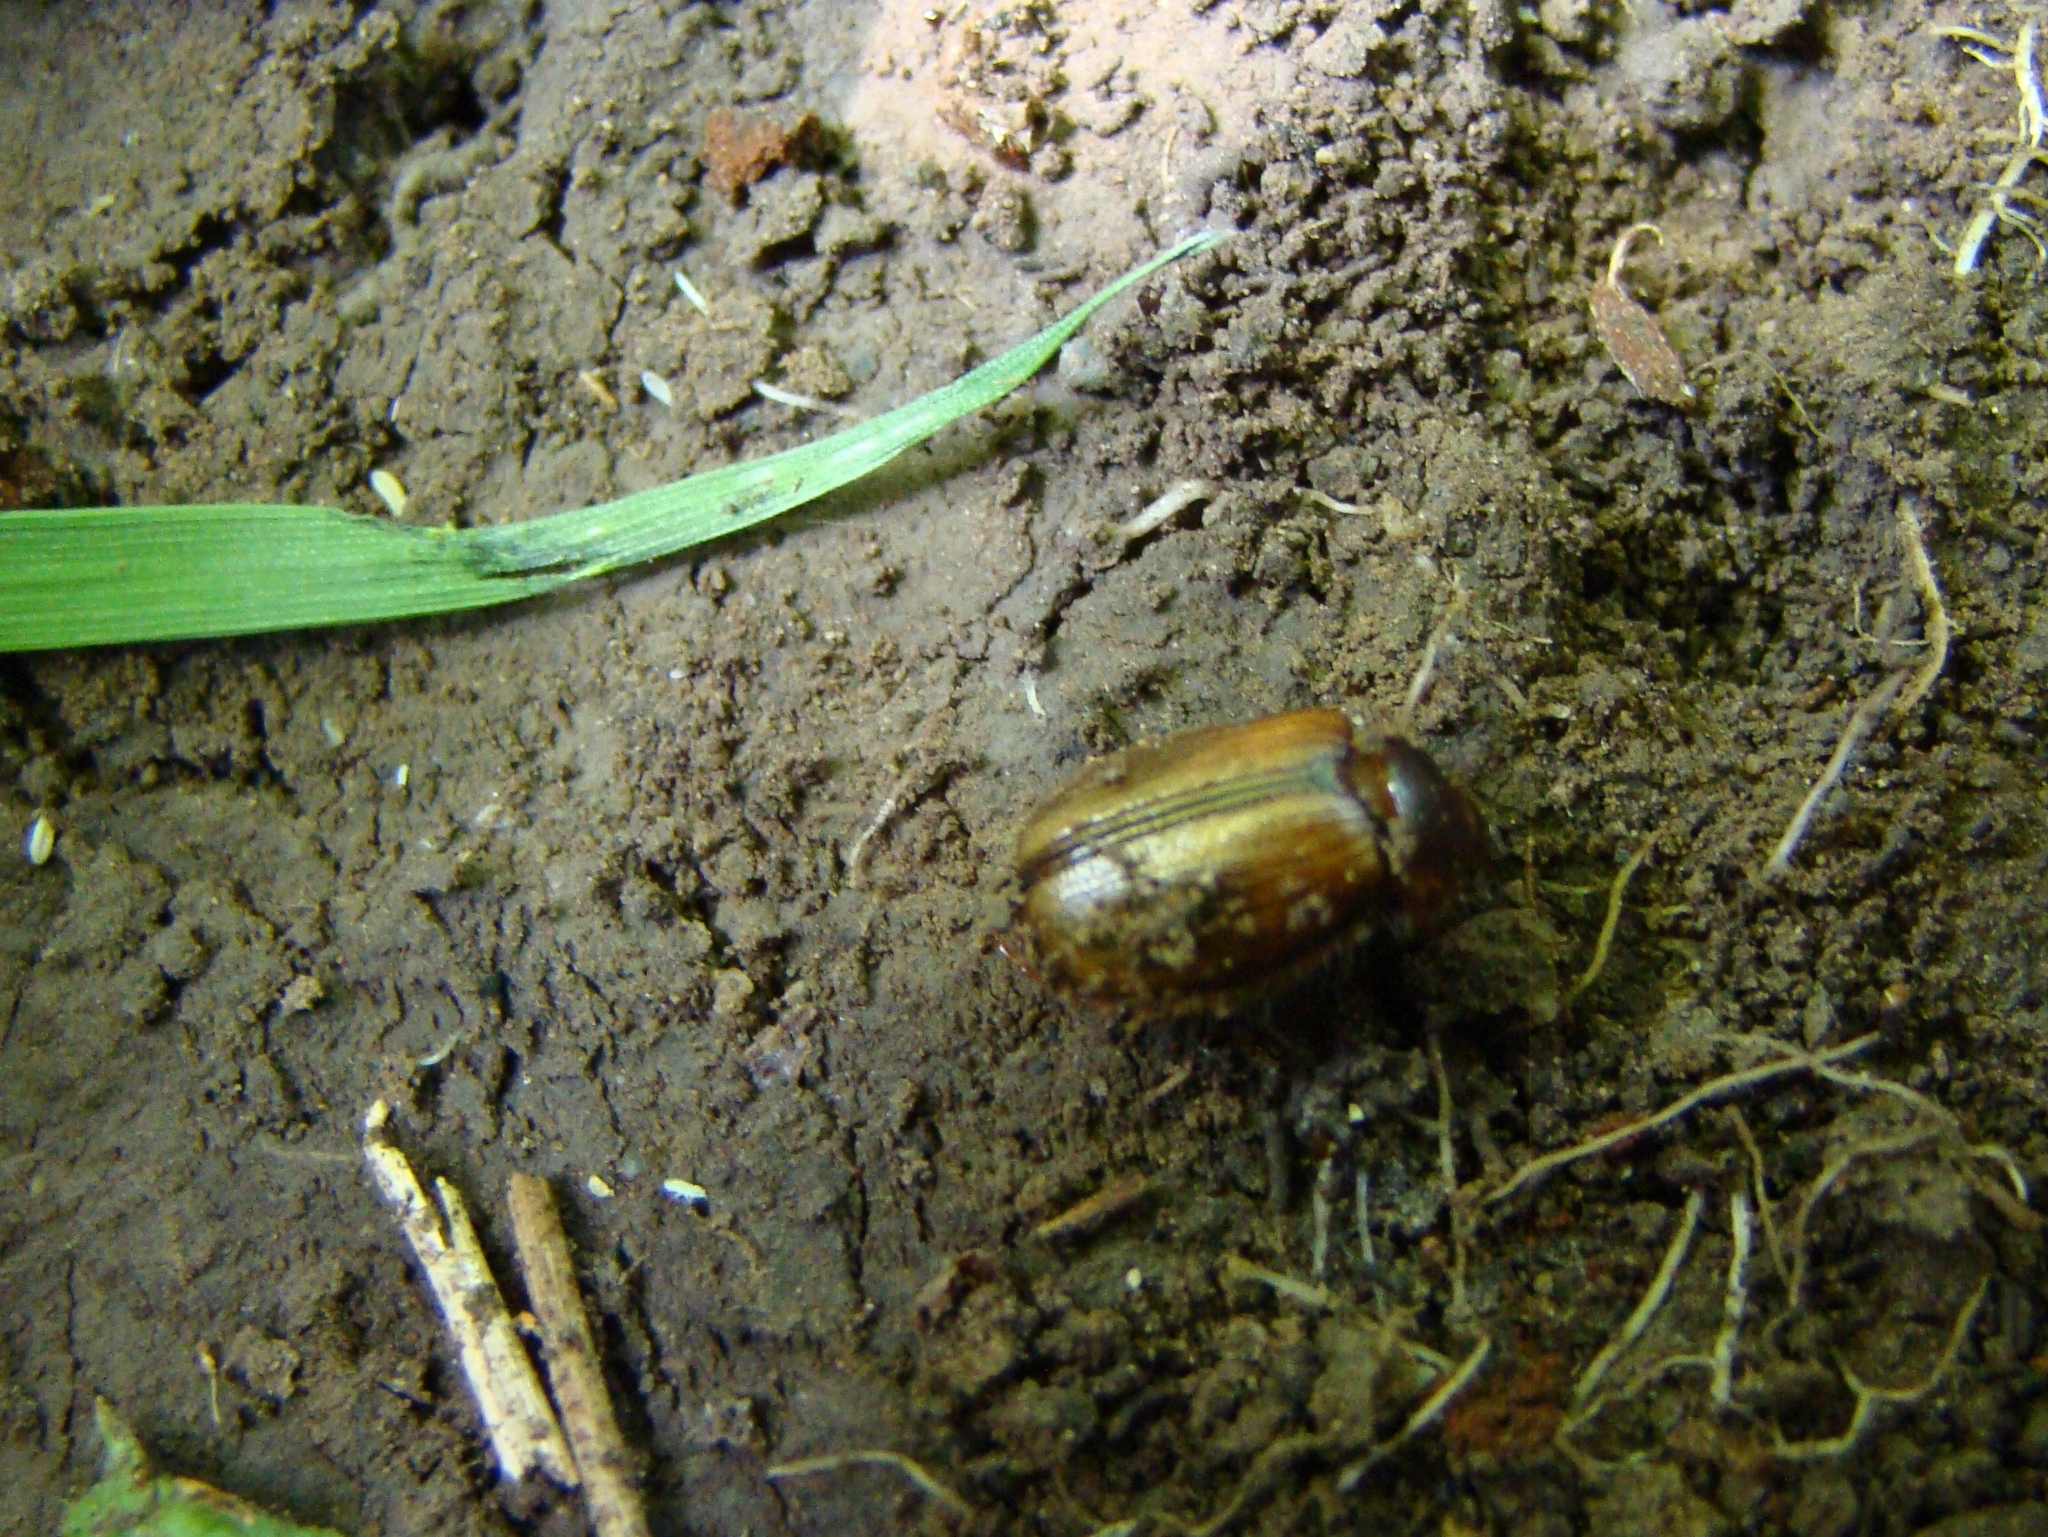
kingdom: Animalia
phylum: Arthropoda
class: Insecta
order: Coleoptera
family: Scarabaeidae
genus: Costelytra
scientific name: Costelytra zealandica
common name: New zealand grass grub
